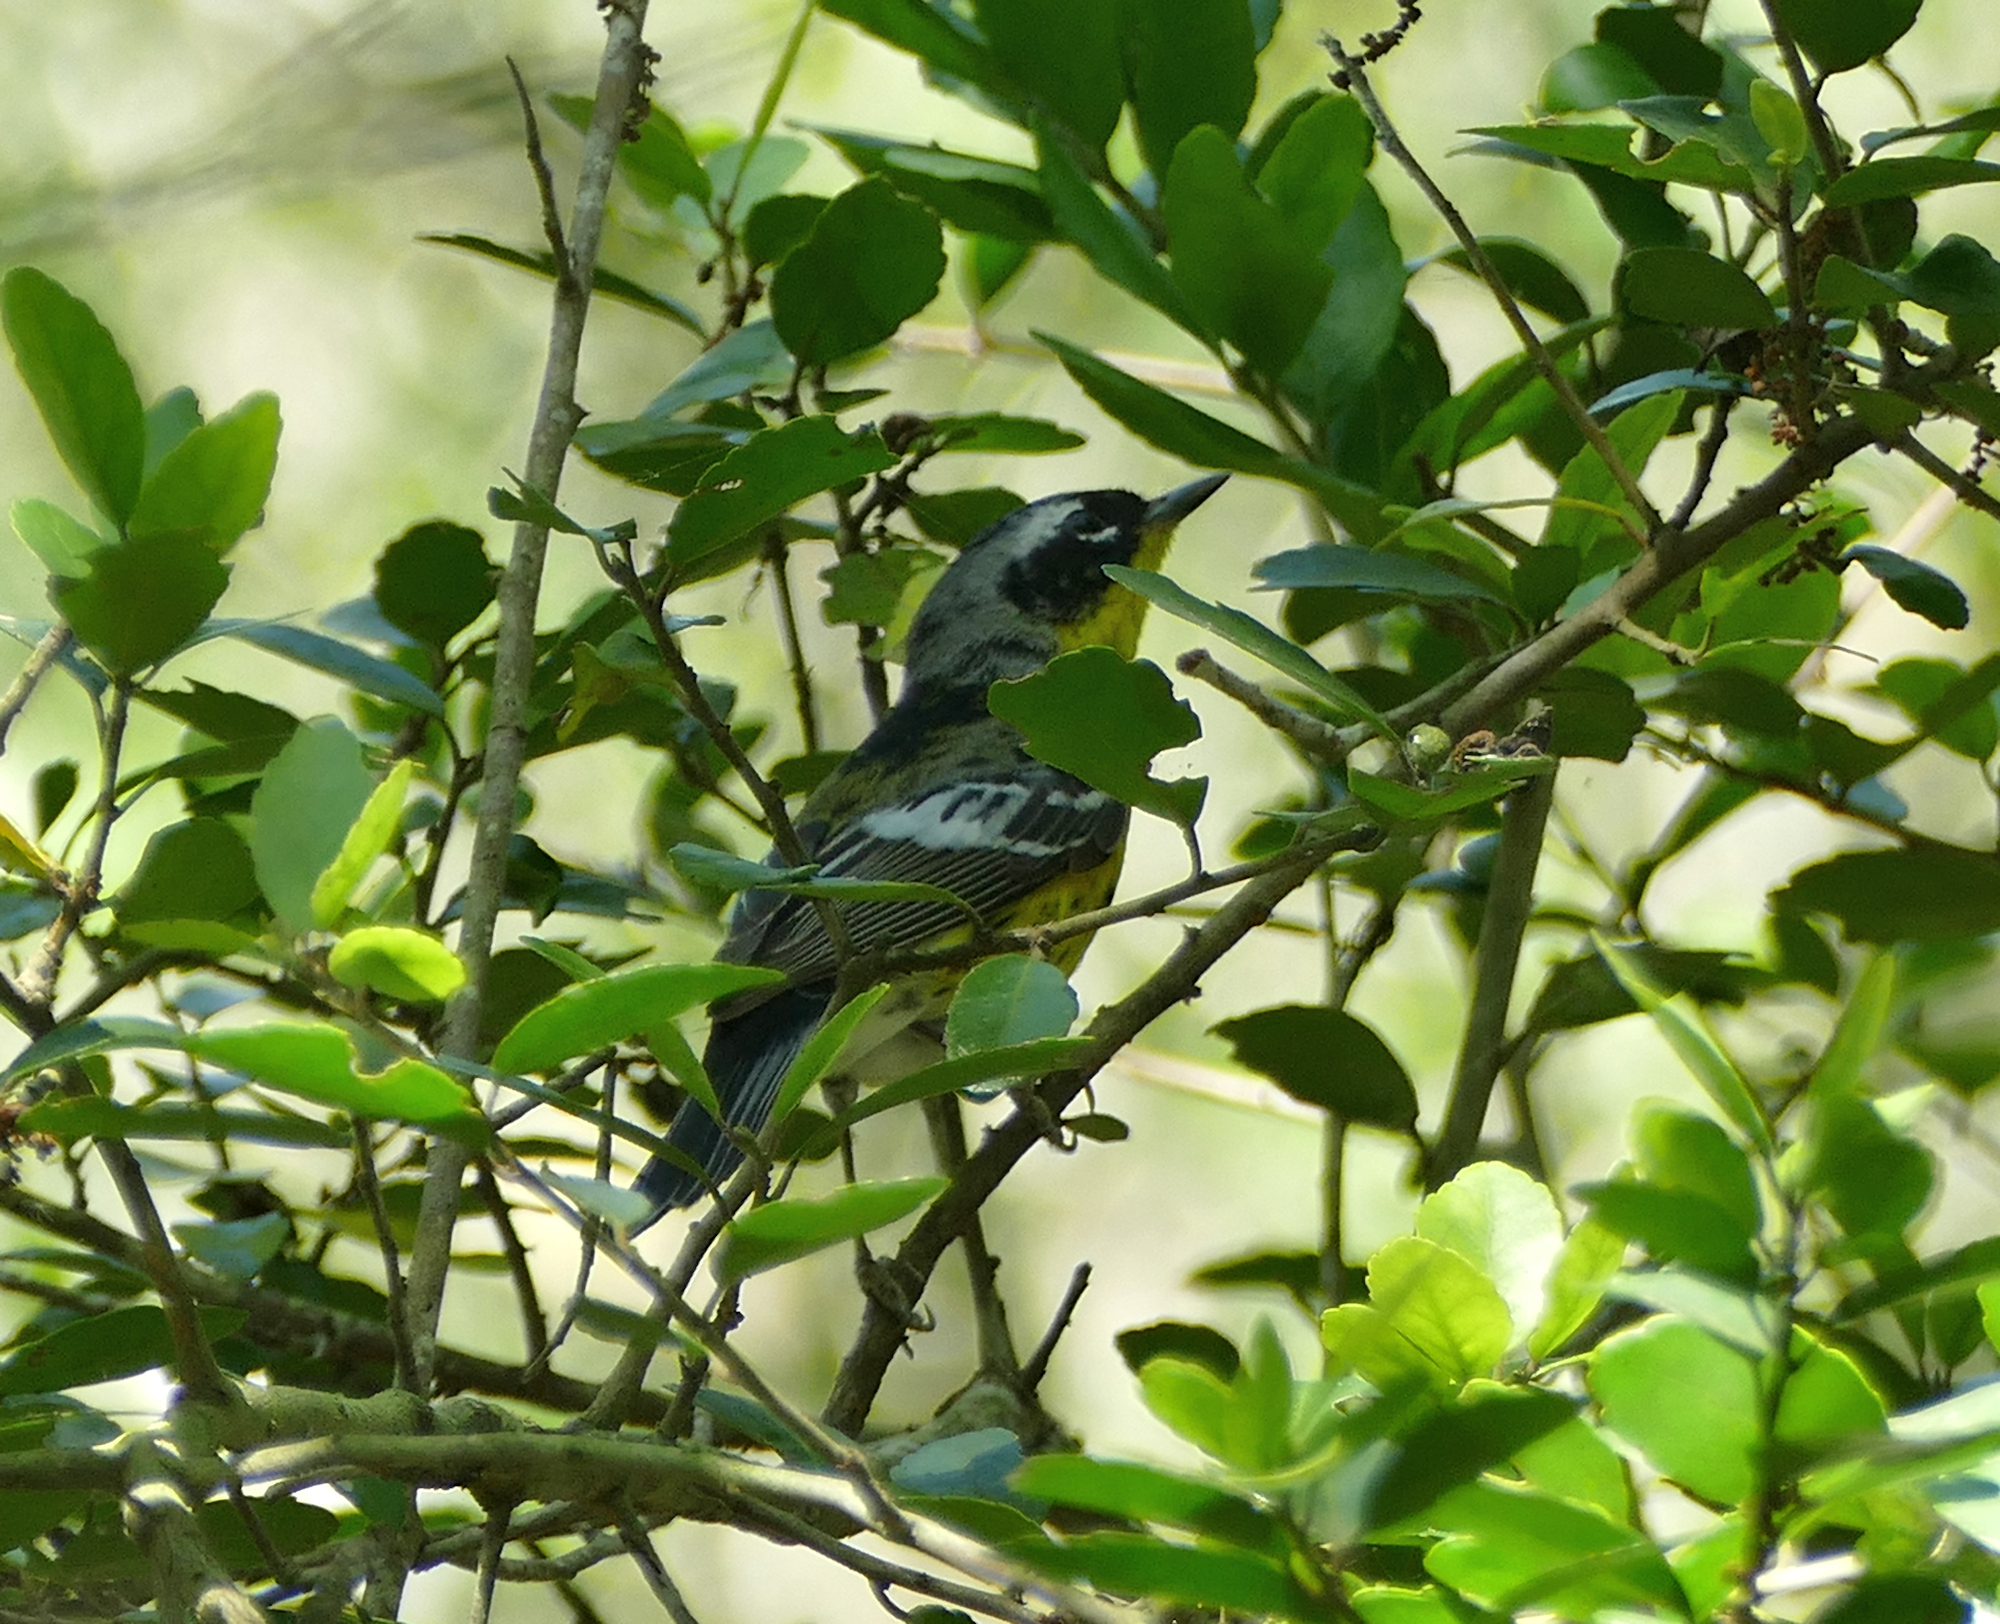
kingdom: Animalia
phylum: Chordata
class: Aves
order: Passeriformes
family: Parulidae
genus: Setophaga
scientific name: Setophaga magnolia
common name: Magnolia warbler
